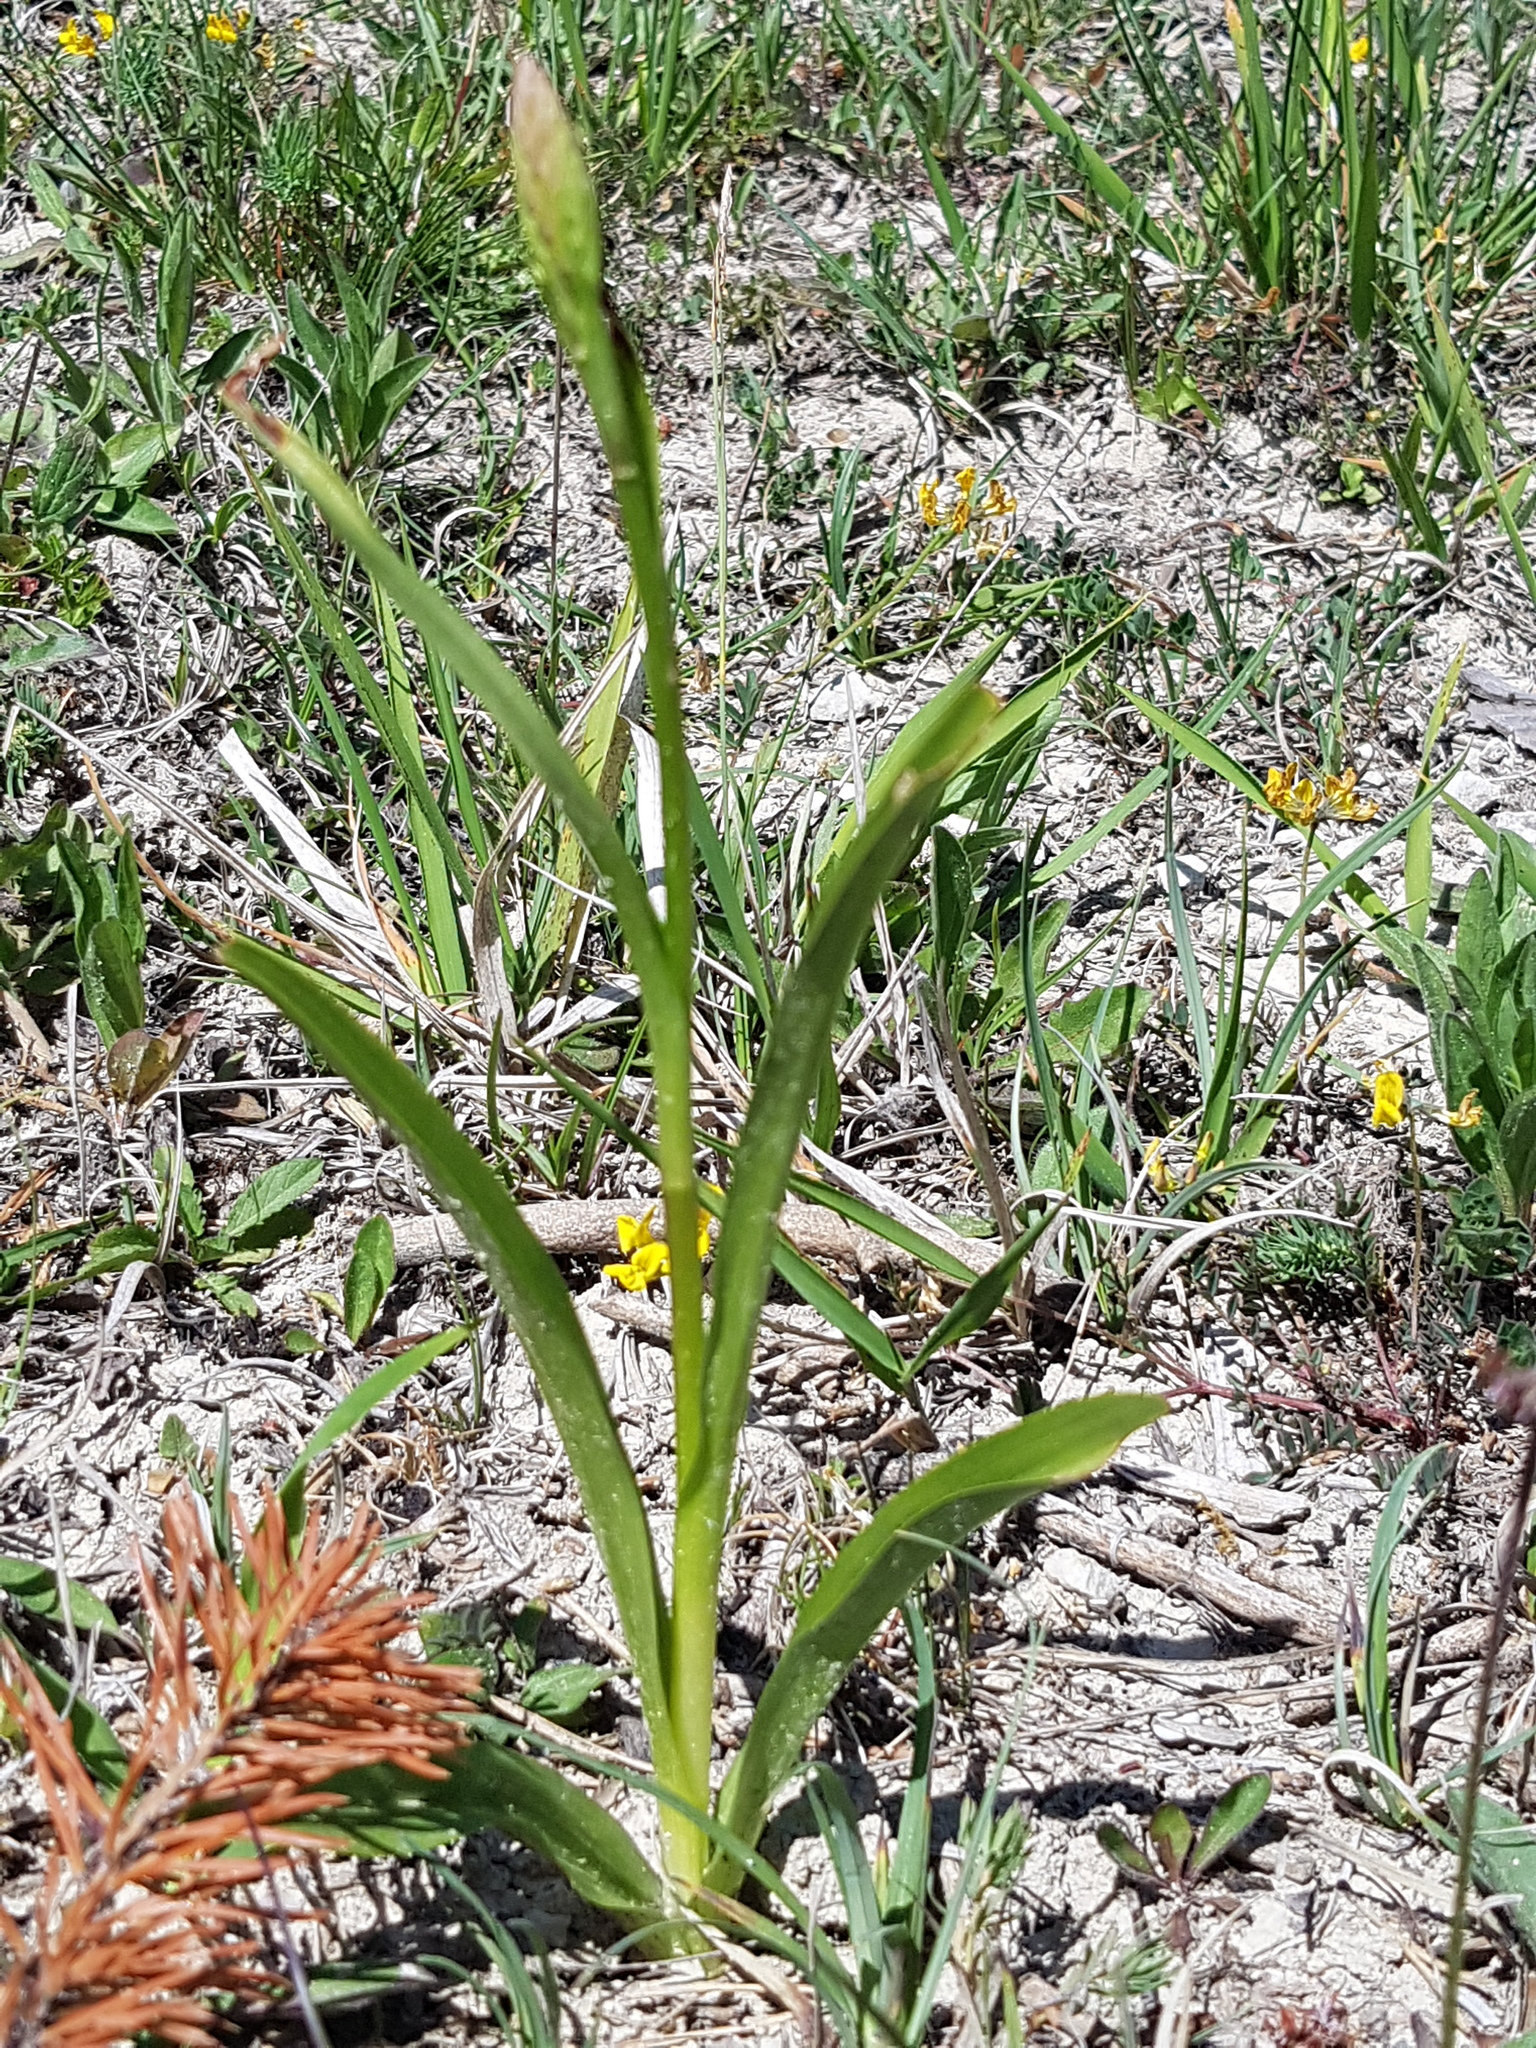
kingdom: Plantae
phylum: Tracheophyta
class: Liliopsida
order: Asparagales
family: Orchidaceae
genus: Ophrys
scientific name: Ophrys insectifera
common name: Fly orchid
